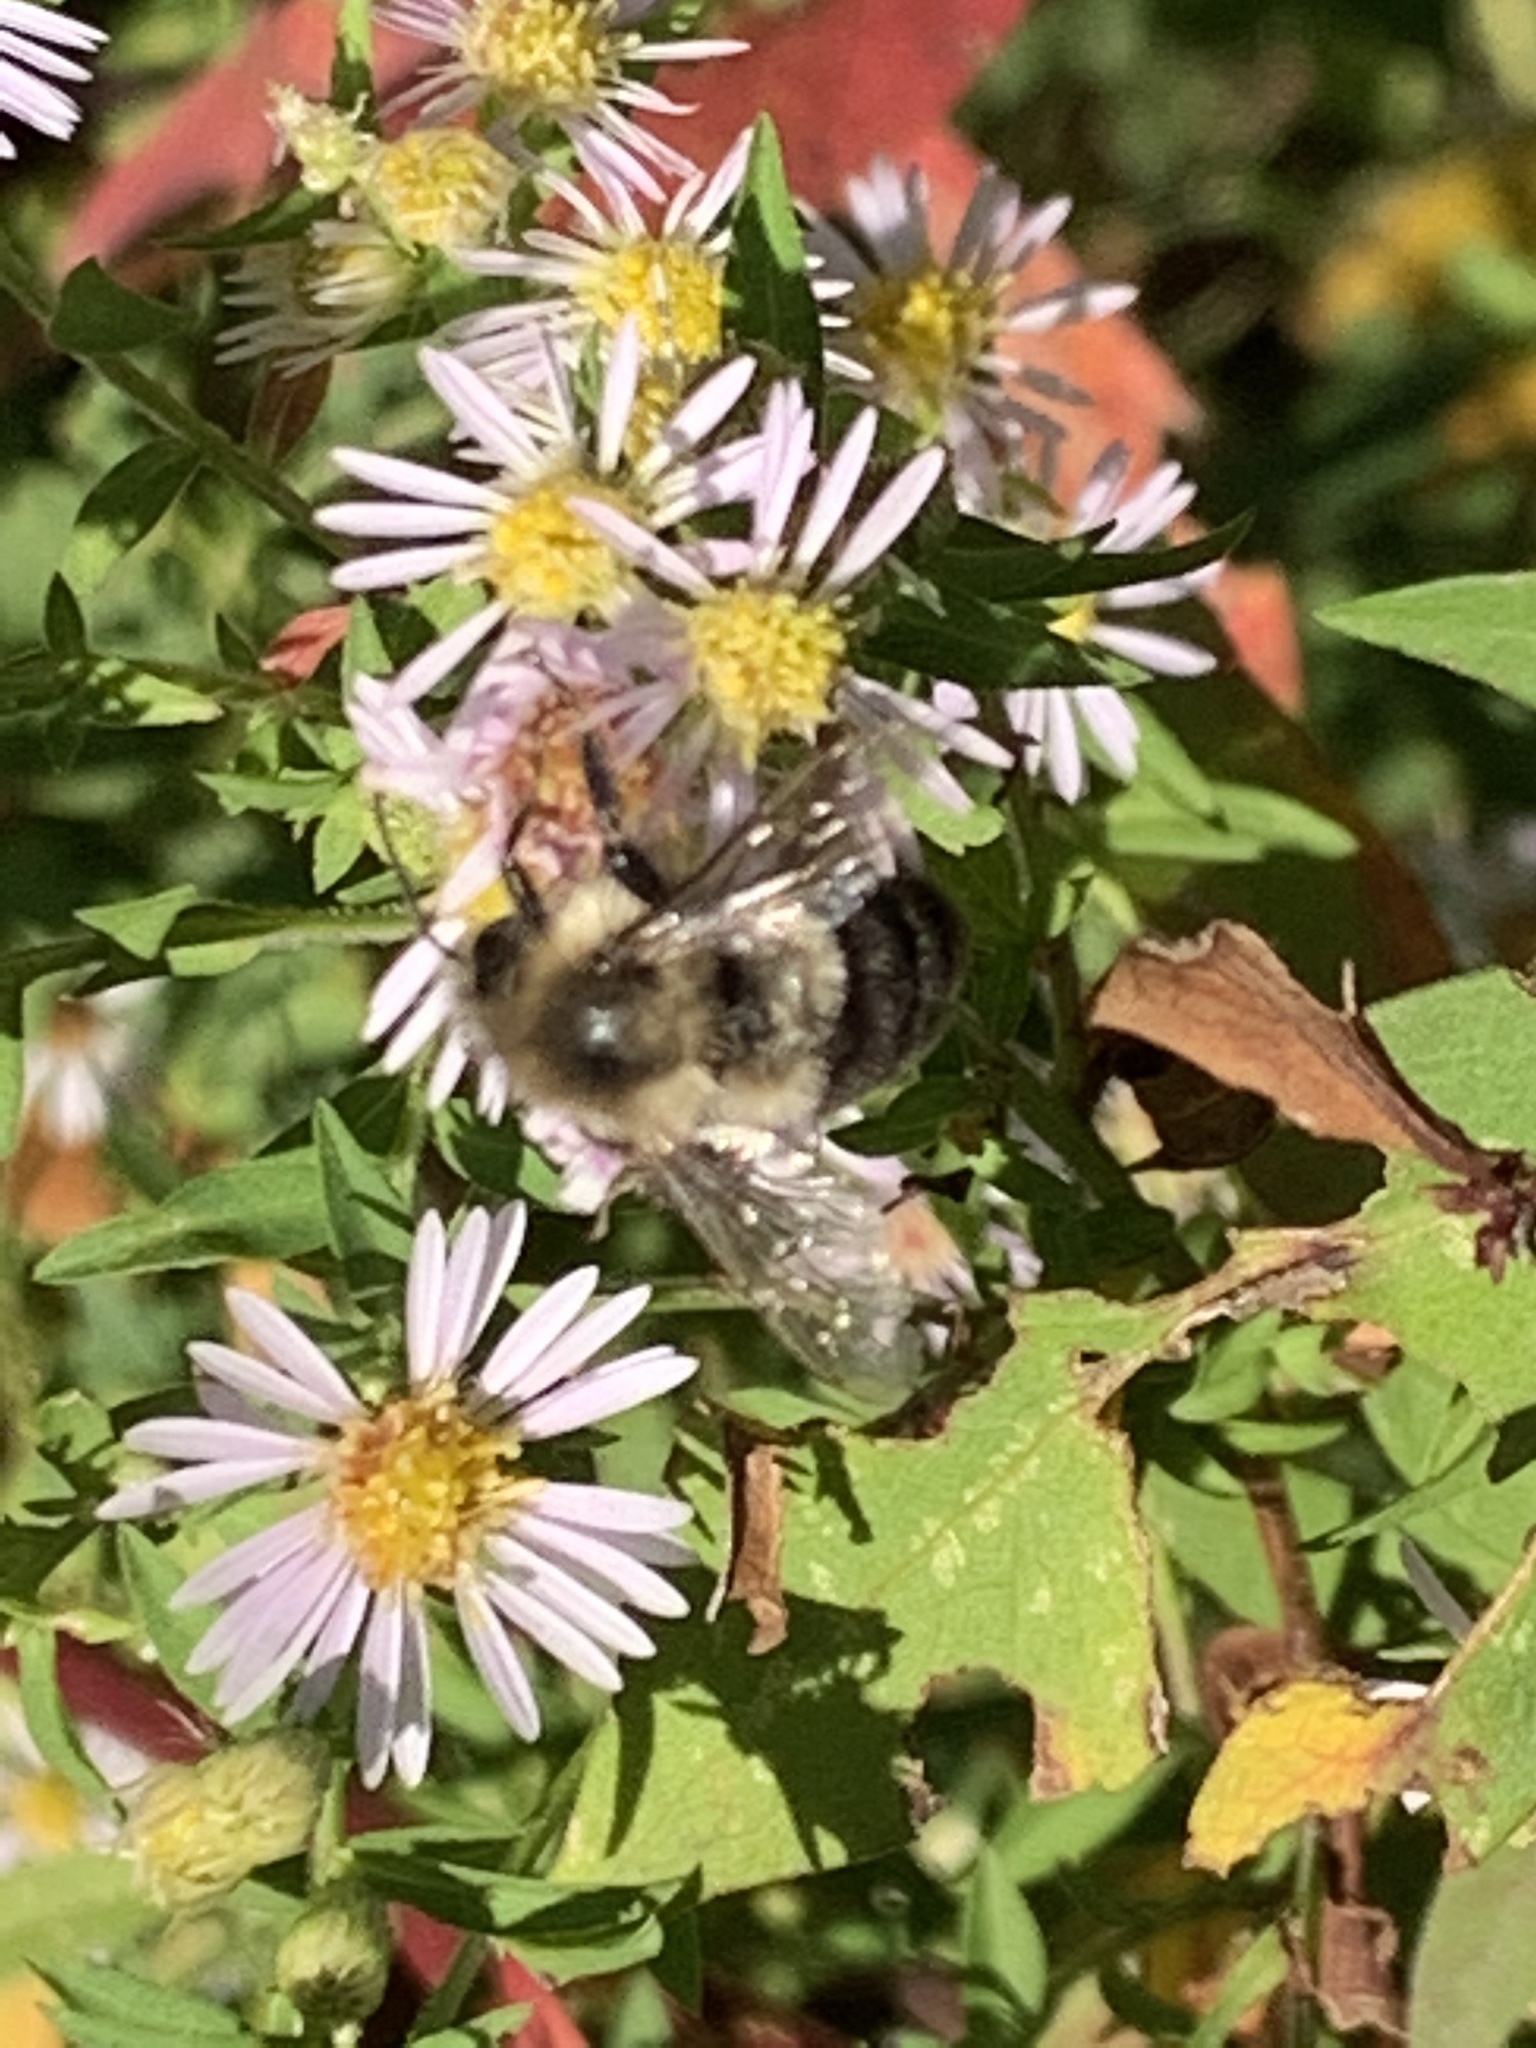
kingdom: Animalia
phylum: Arthropoda
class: Insecta
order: Hymenoptera
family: Apidae
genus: Bombus
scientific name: Bombus impatiens
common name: Common eastern bumble bee
